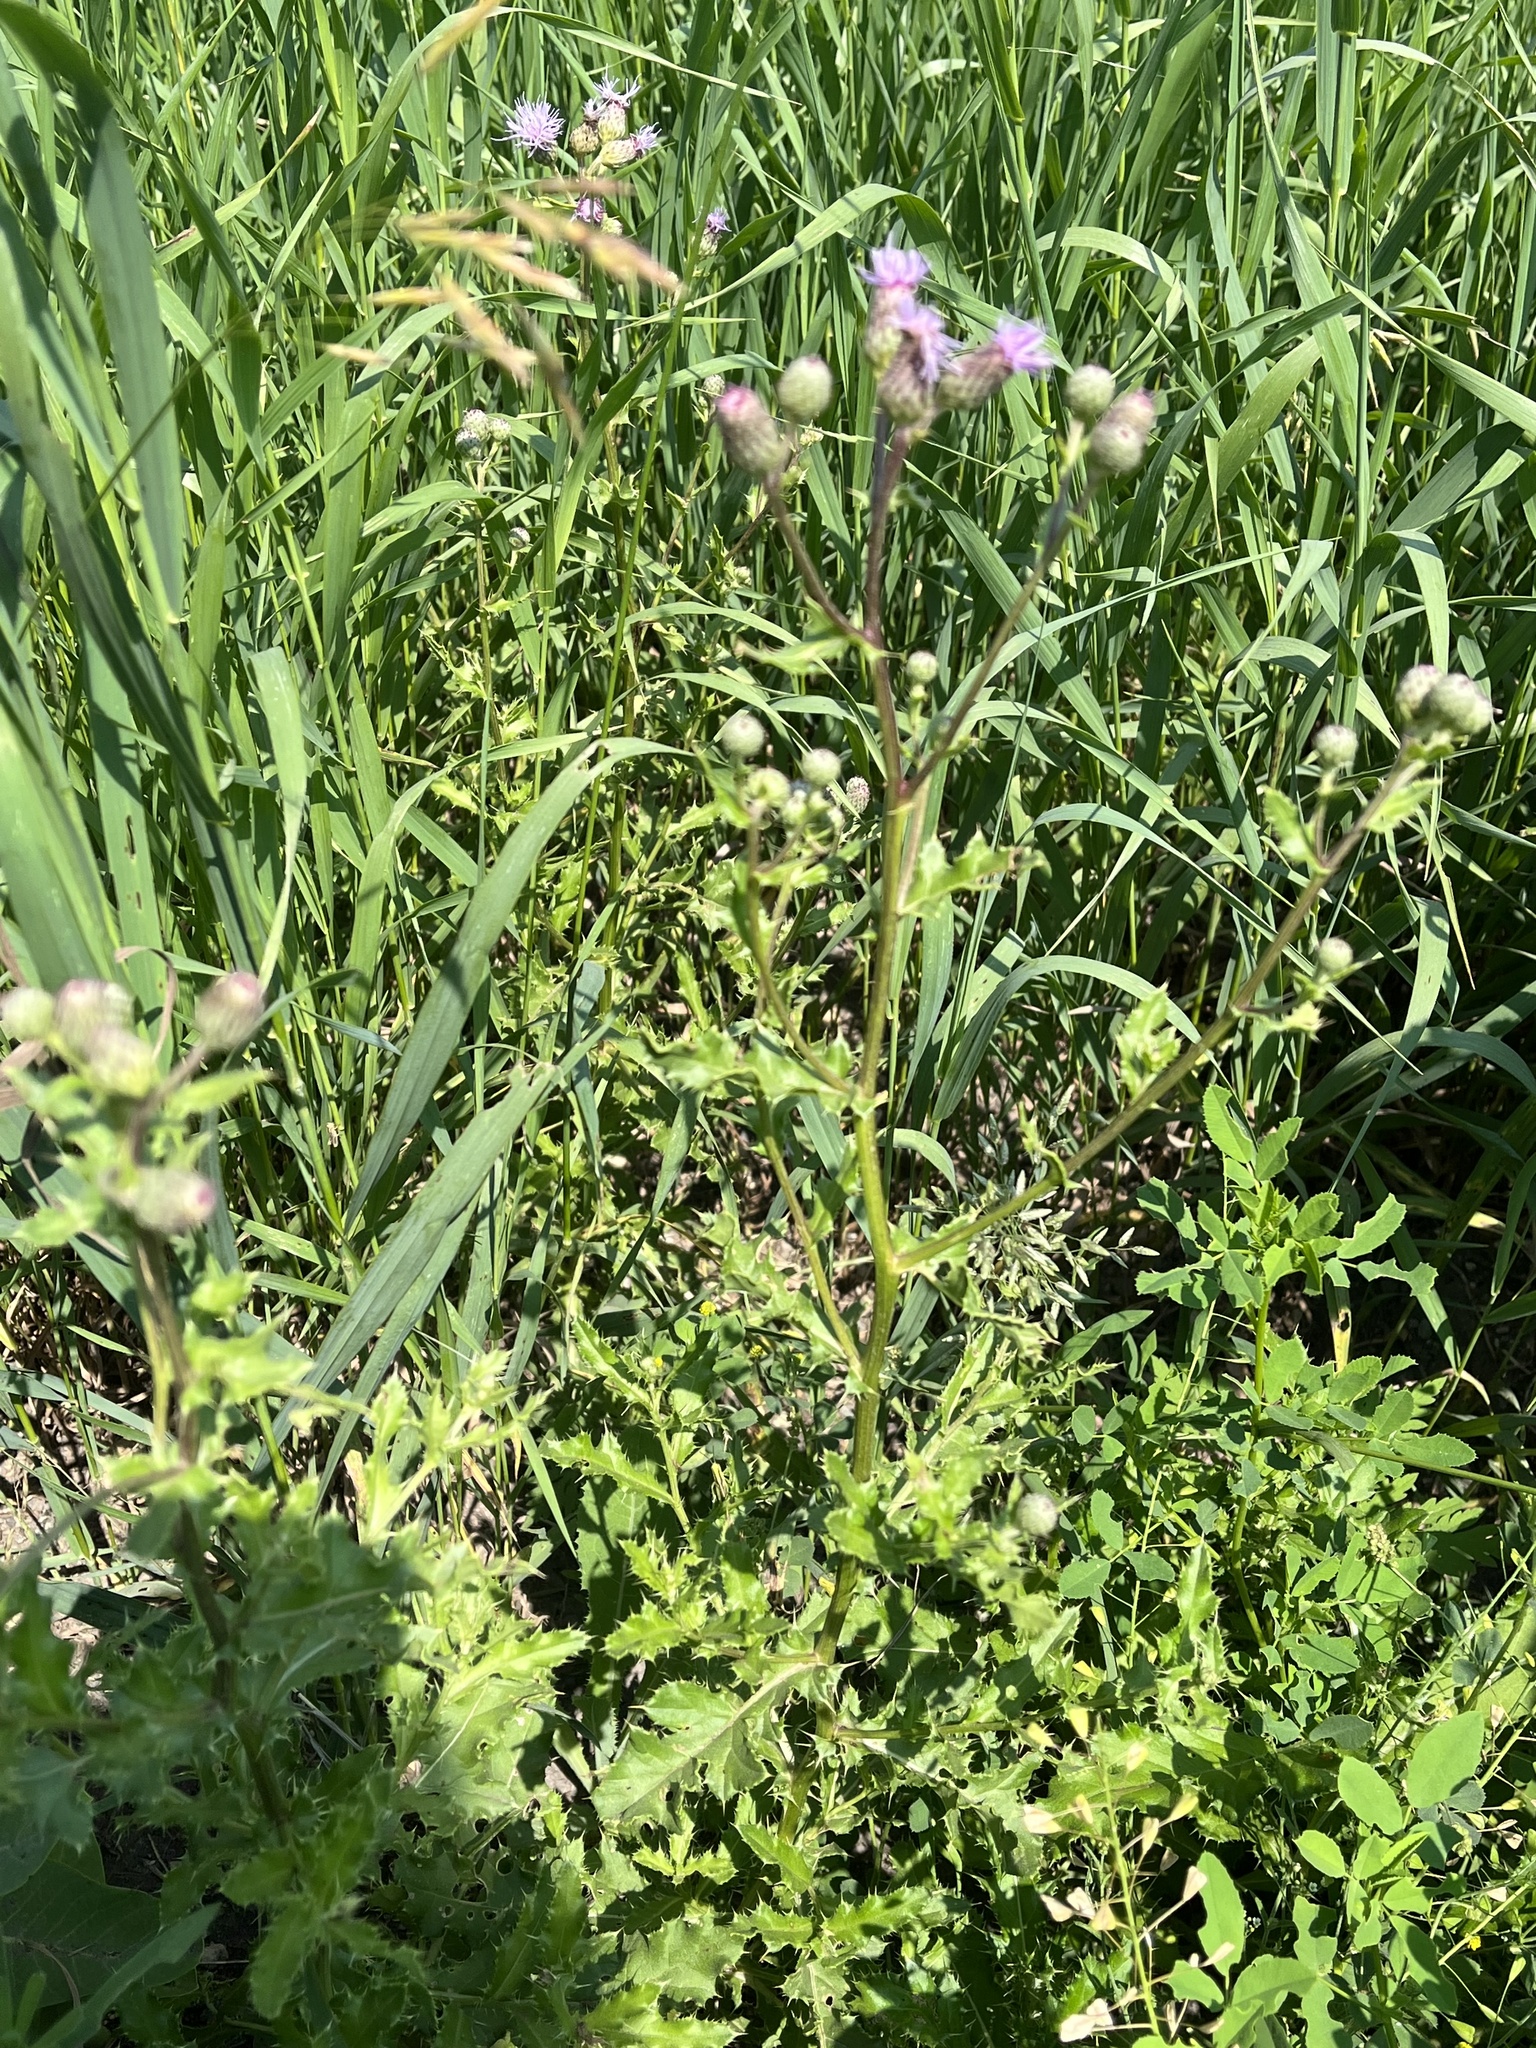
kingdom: Plantae
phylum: Tracheophyta
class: Magnoliopsida
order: Asterales
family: Asteraceae
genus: Cirsium
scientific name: Cirsium arvense
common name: Creeping thistle
